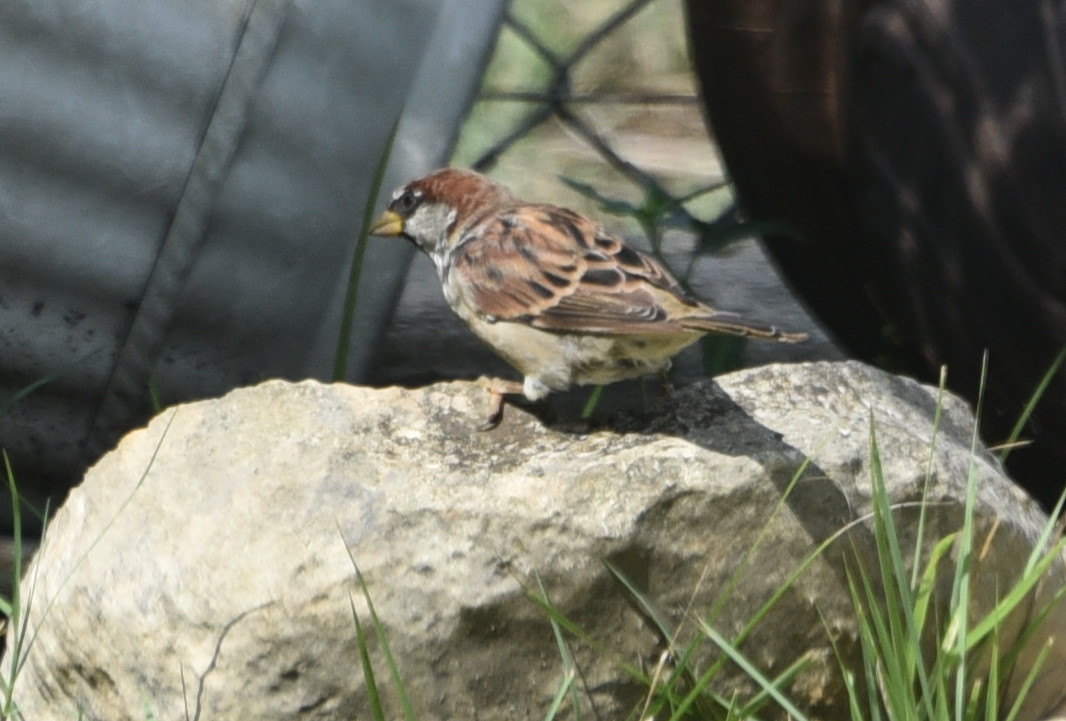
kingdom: Animalia
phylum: Chordata
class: Aves
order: Passeriformes
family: Passeridae
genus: Passer
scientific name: Passer domesticus
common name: House sparrow
